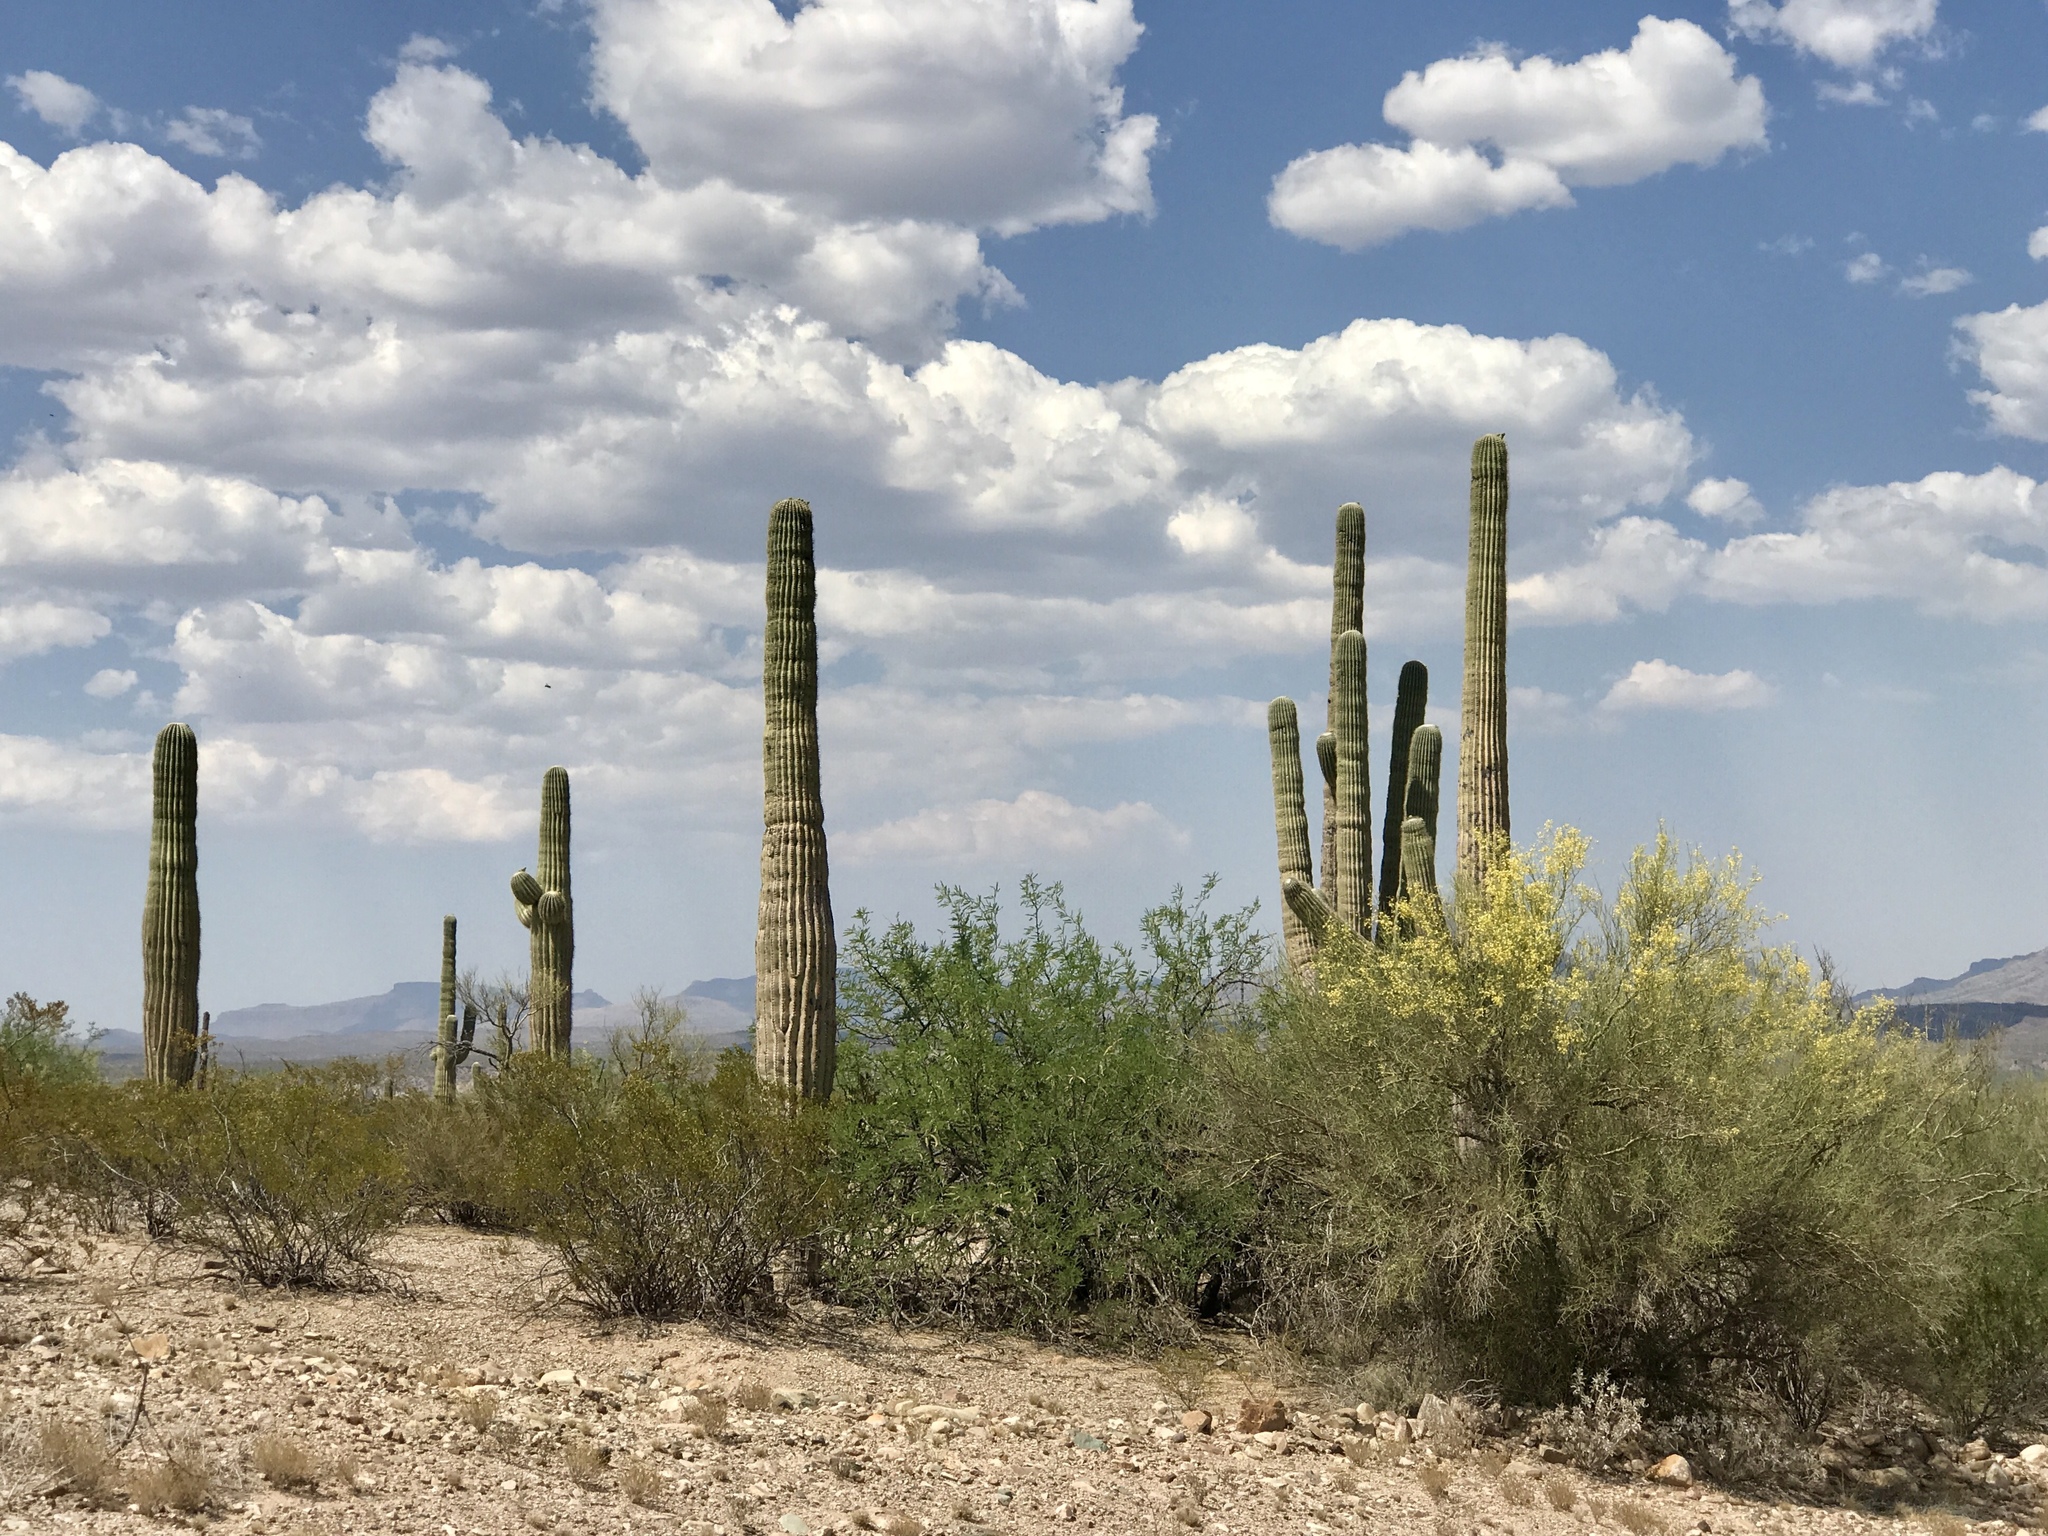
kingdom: Plantae
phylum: Tracheophyta
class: Magnoliopsida
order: Caryophyllales
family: Cactaceae
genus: Carnegiea
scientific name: Carnegiea gigantea
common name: Saguaro
